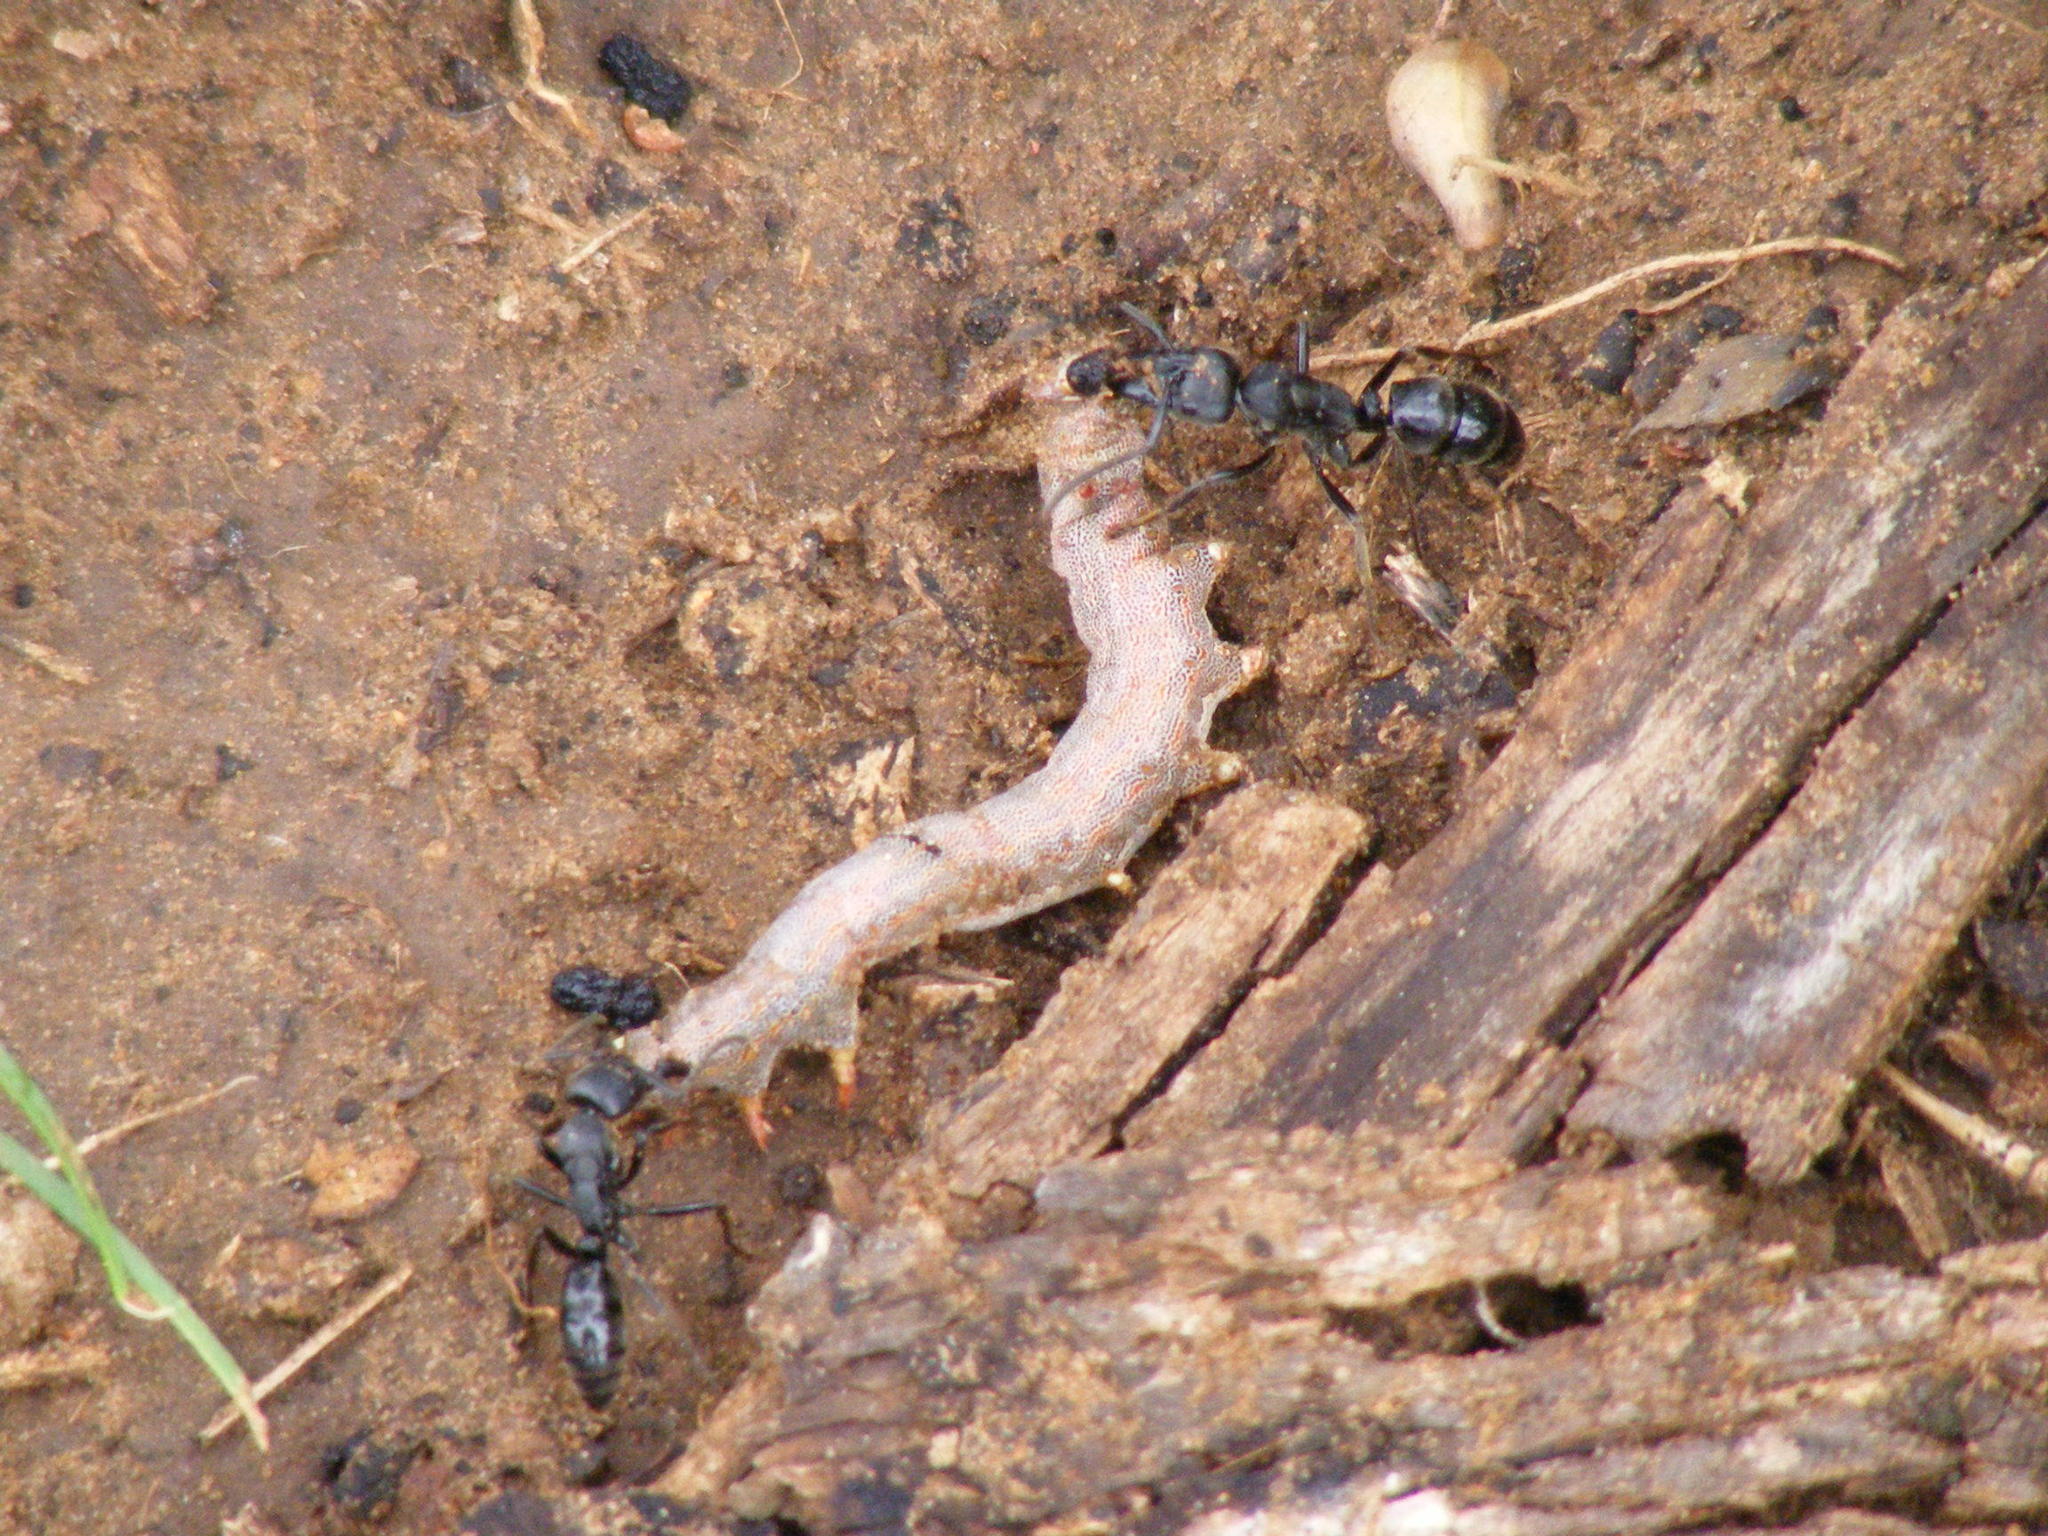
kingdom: Animalia
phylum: Arthropoda
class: Insecta
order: Hymenoptera
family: Formicidae
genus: Paltothyreus
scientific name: Paltothyreus tarsatus
